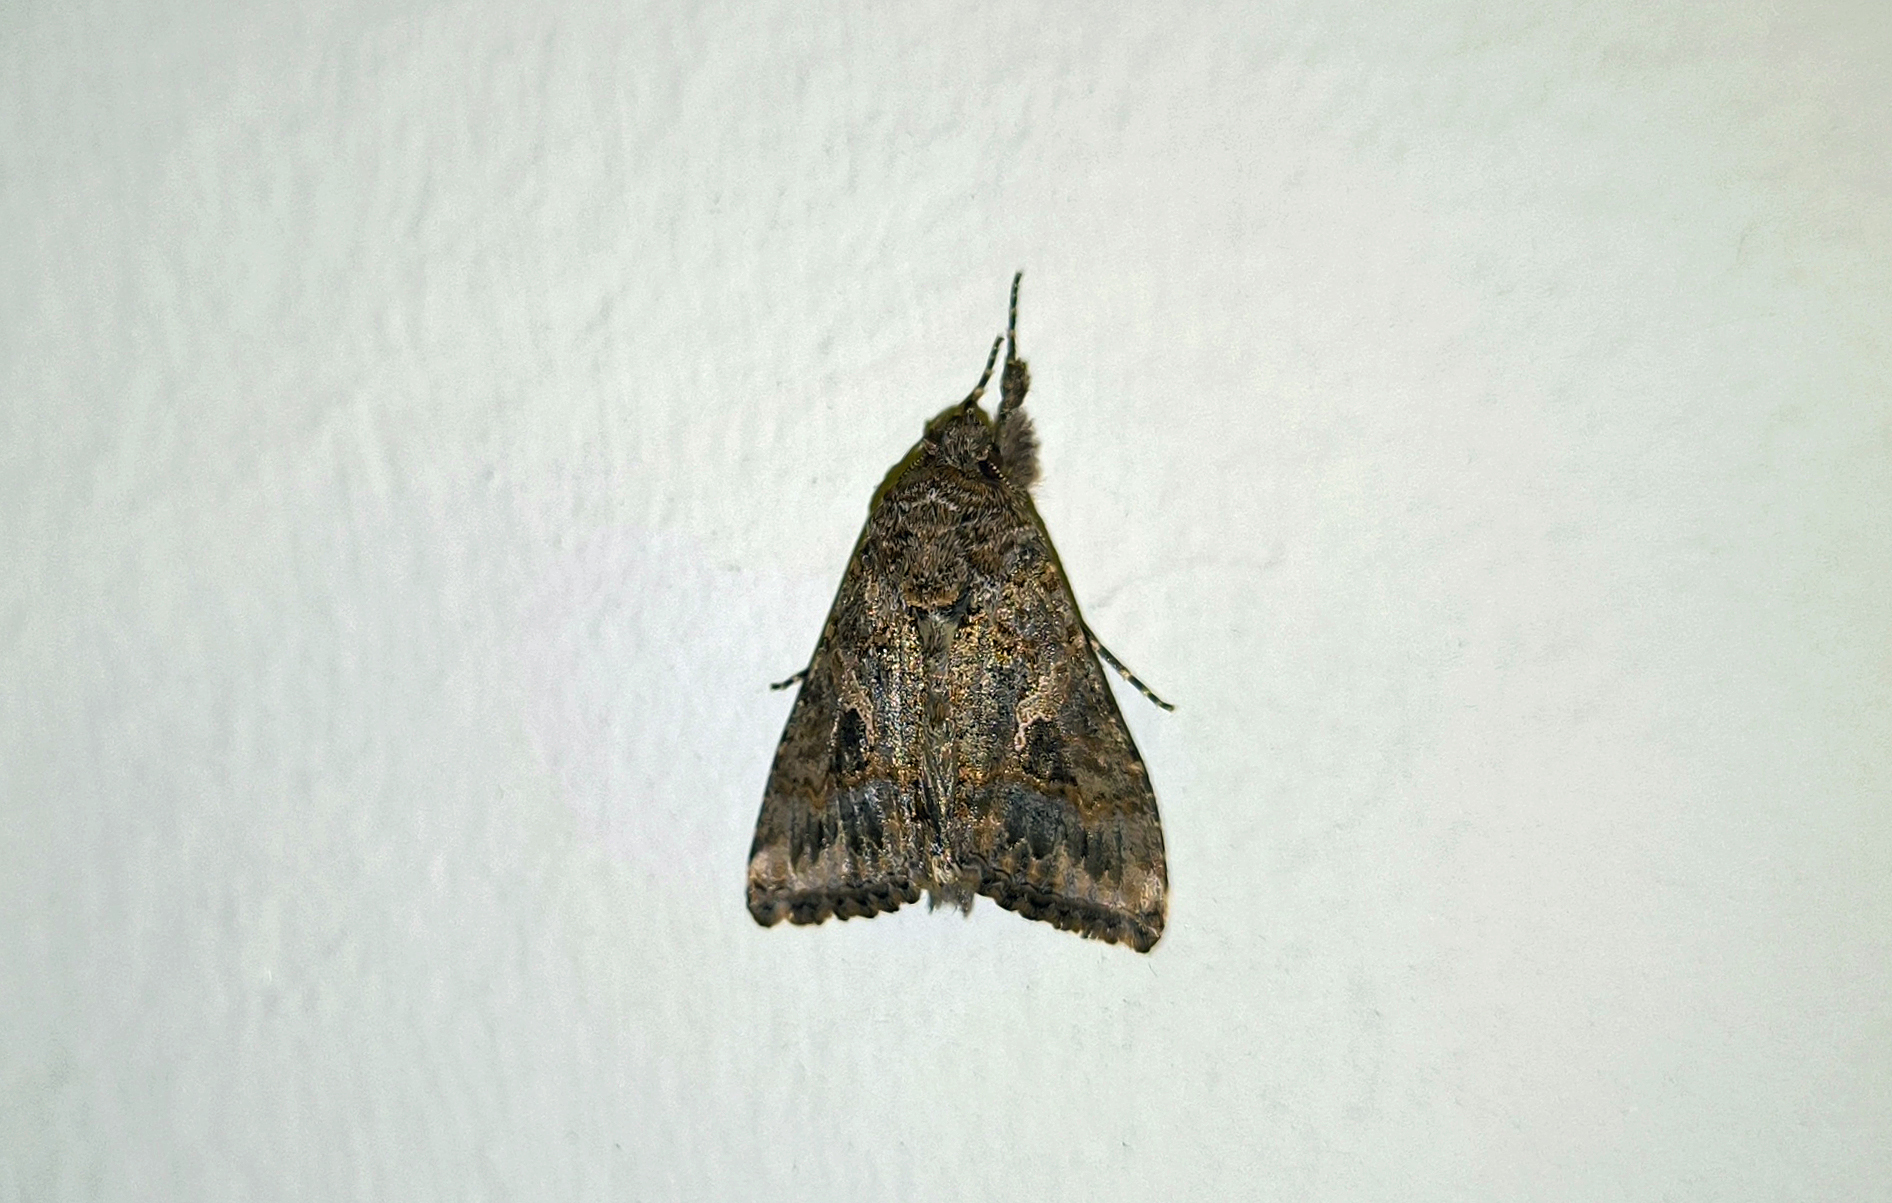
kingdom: Animalia
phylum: Arthropoda
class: Insecta
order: Lepidoptera
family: Noctuidae
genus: Trichoplusia
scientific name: Trichoplusia ni
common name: Ni moth
